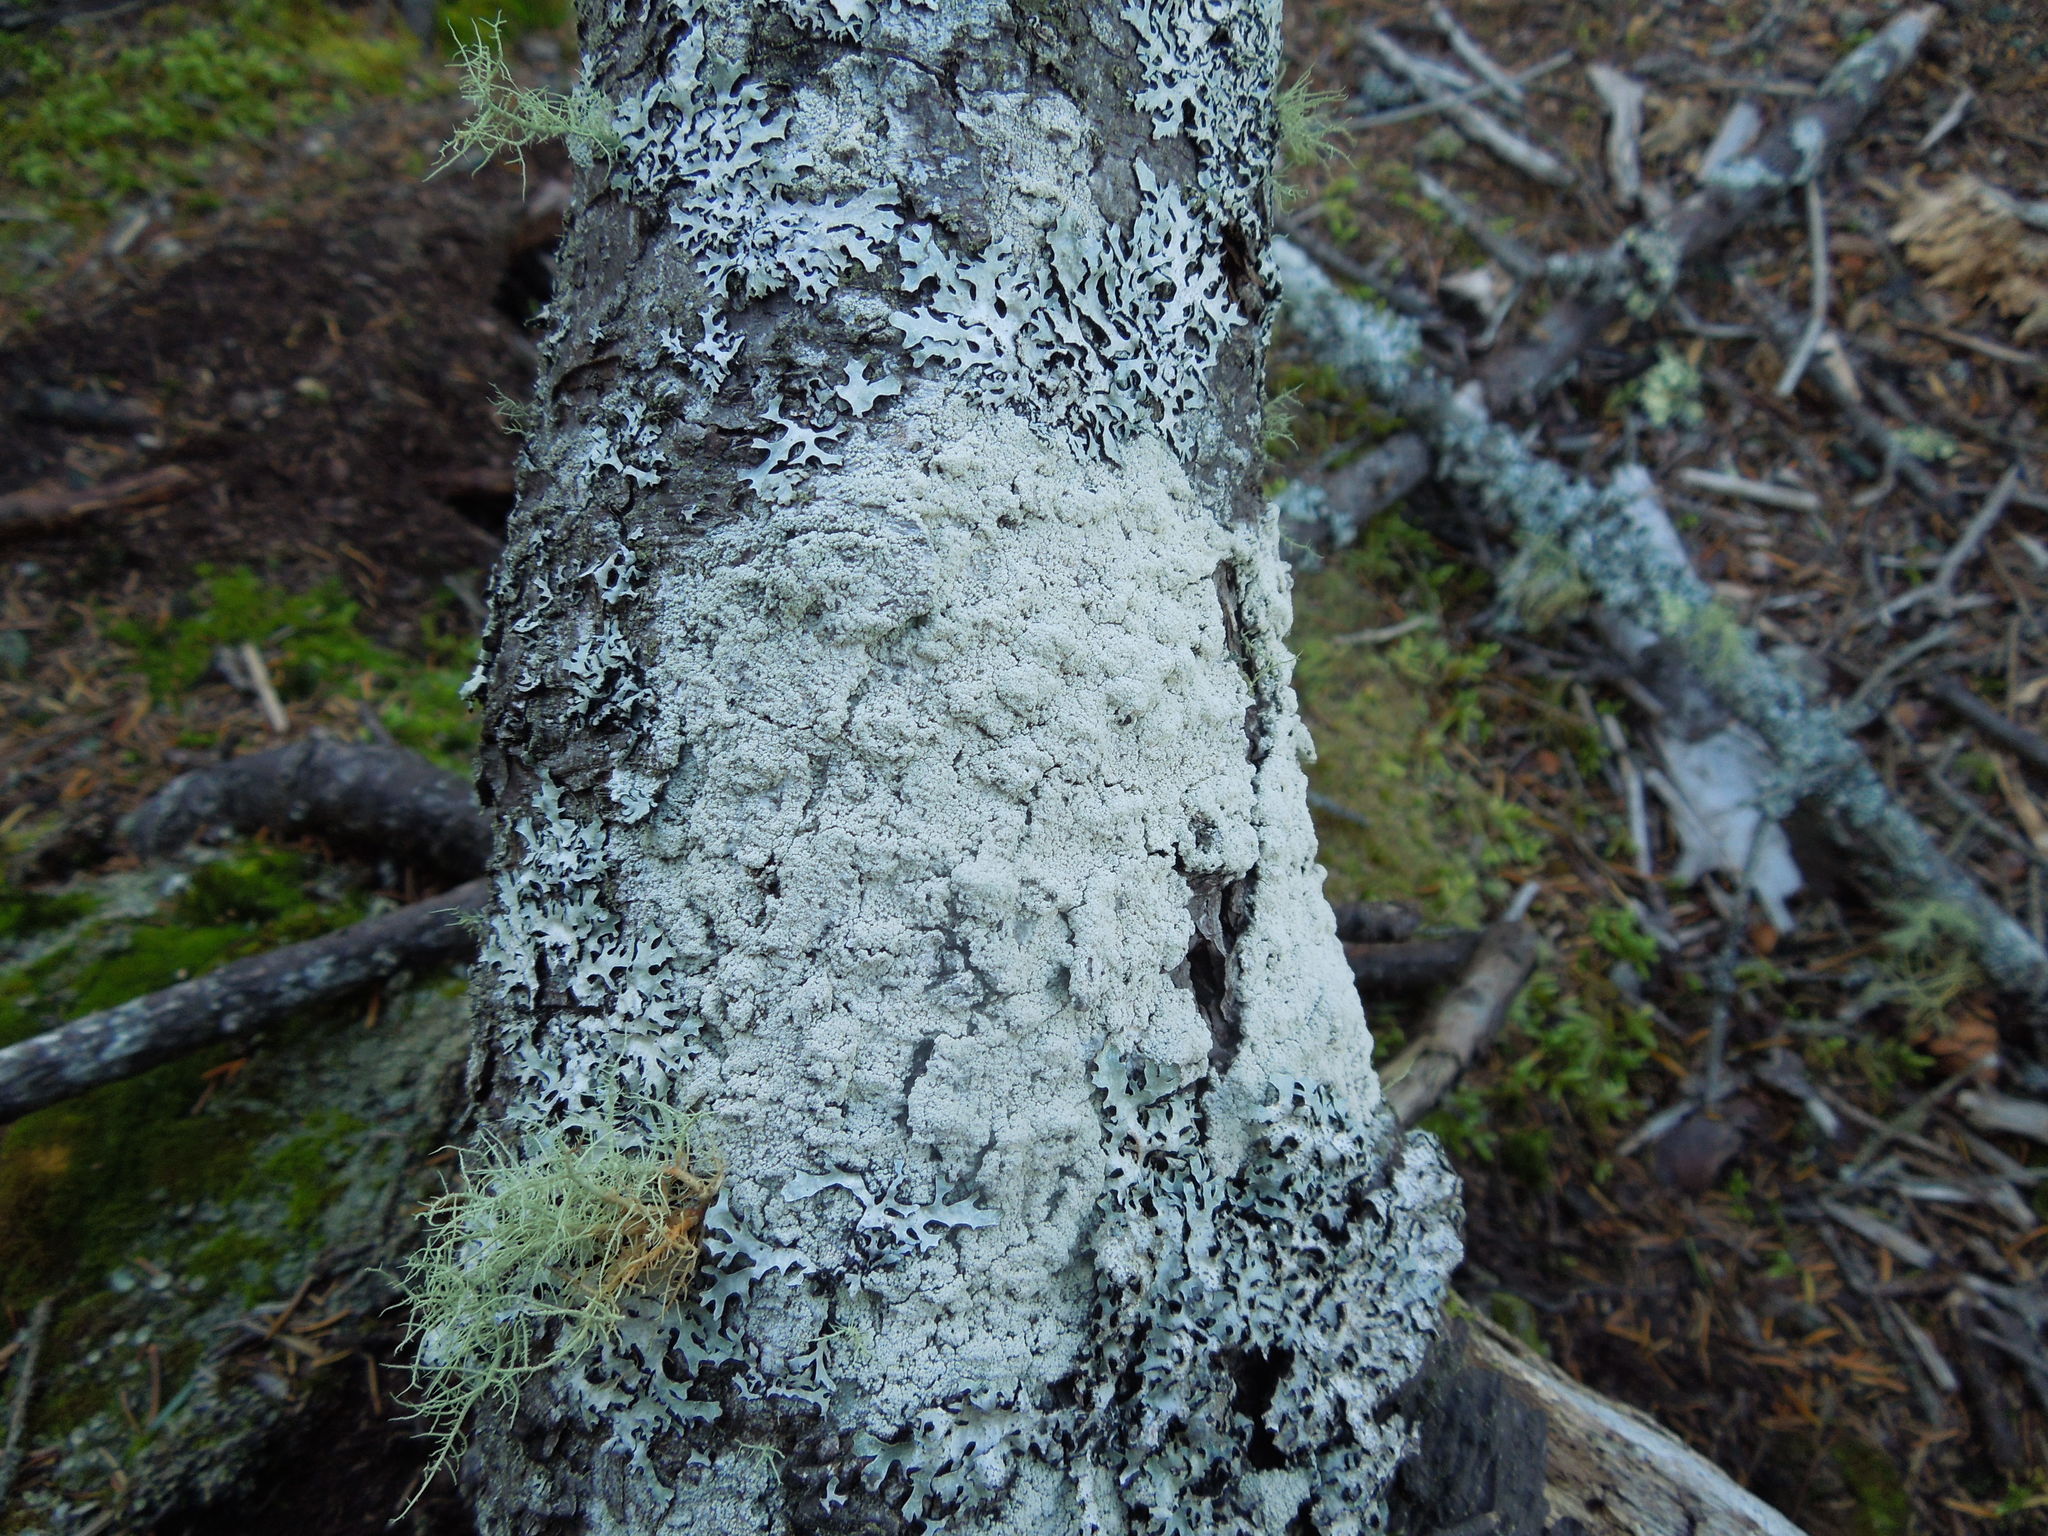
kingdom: Fungi
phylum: Ascomycota
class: Lecanoromycetes
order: Lecanorales
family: Stereocaulaceae
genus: Lepraria
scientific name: Lepraria
